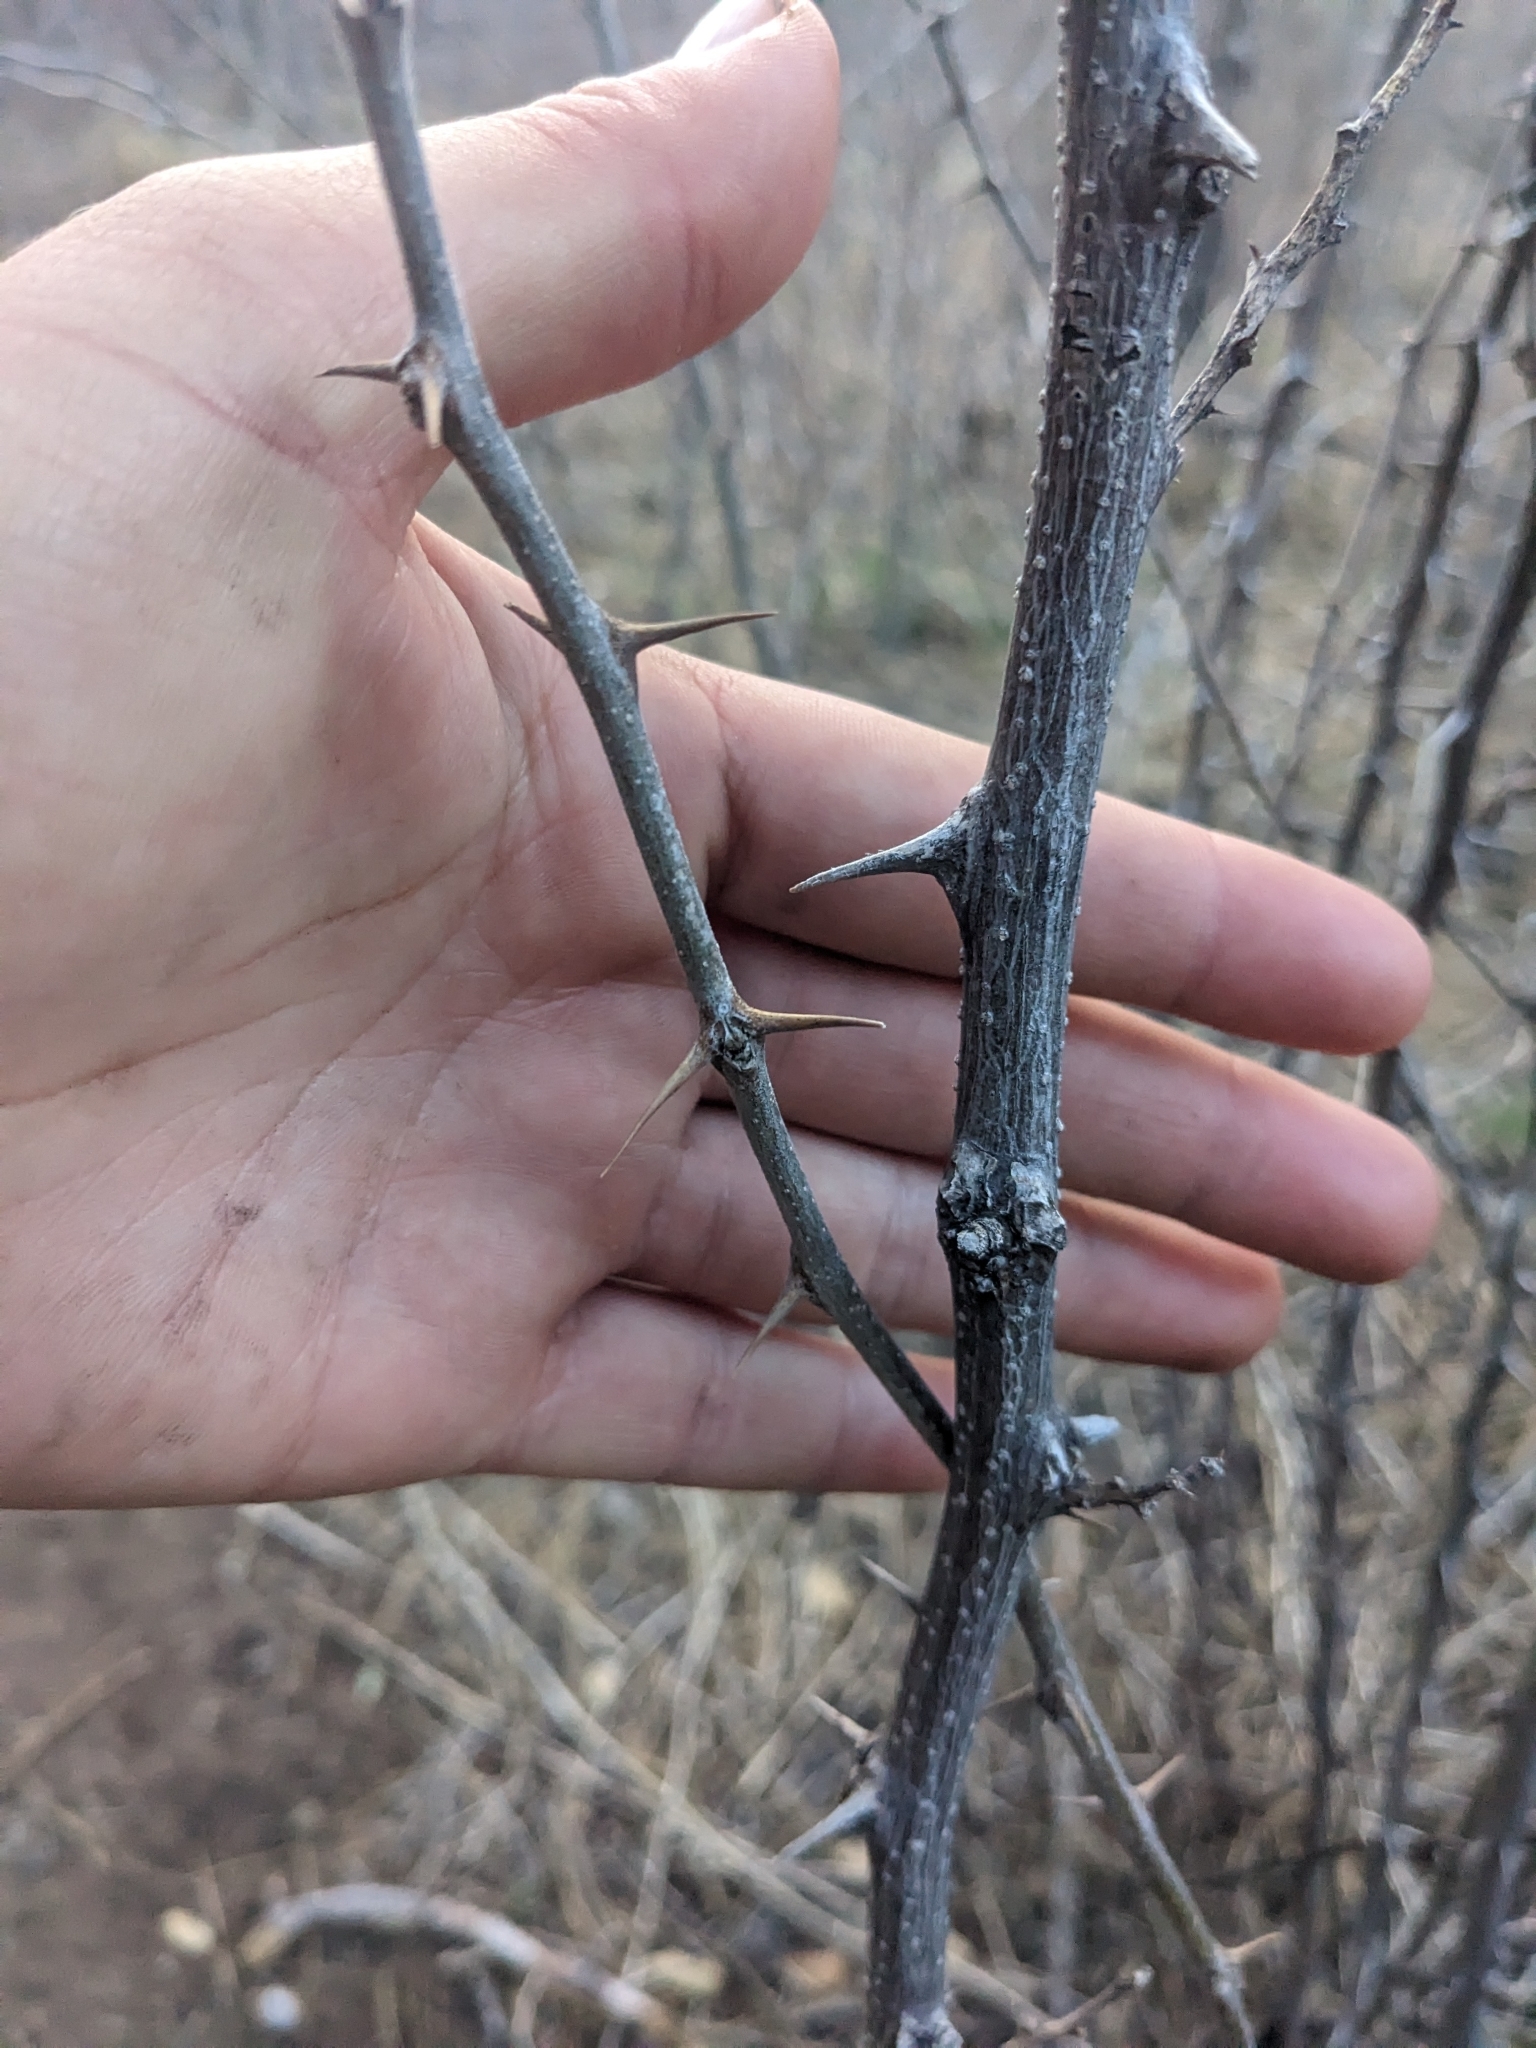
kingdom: Plantae
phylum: Tracheophyta
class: Magnoliopsida
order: Fabales
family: Fabaceae
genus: Robinia
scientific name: Robinia neomexicana
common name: New mexico locust
